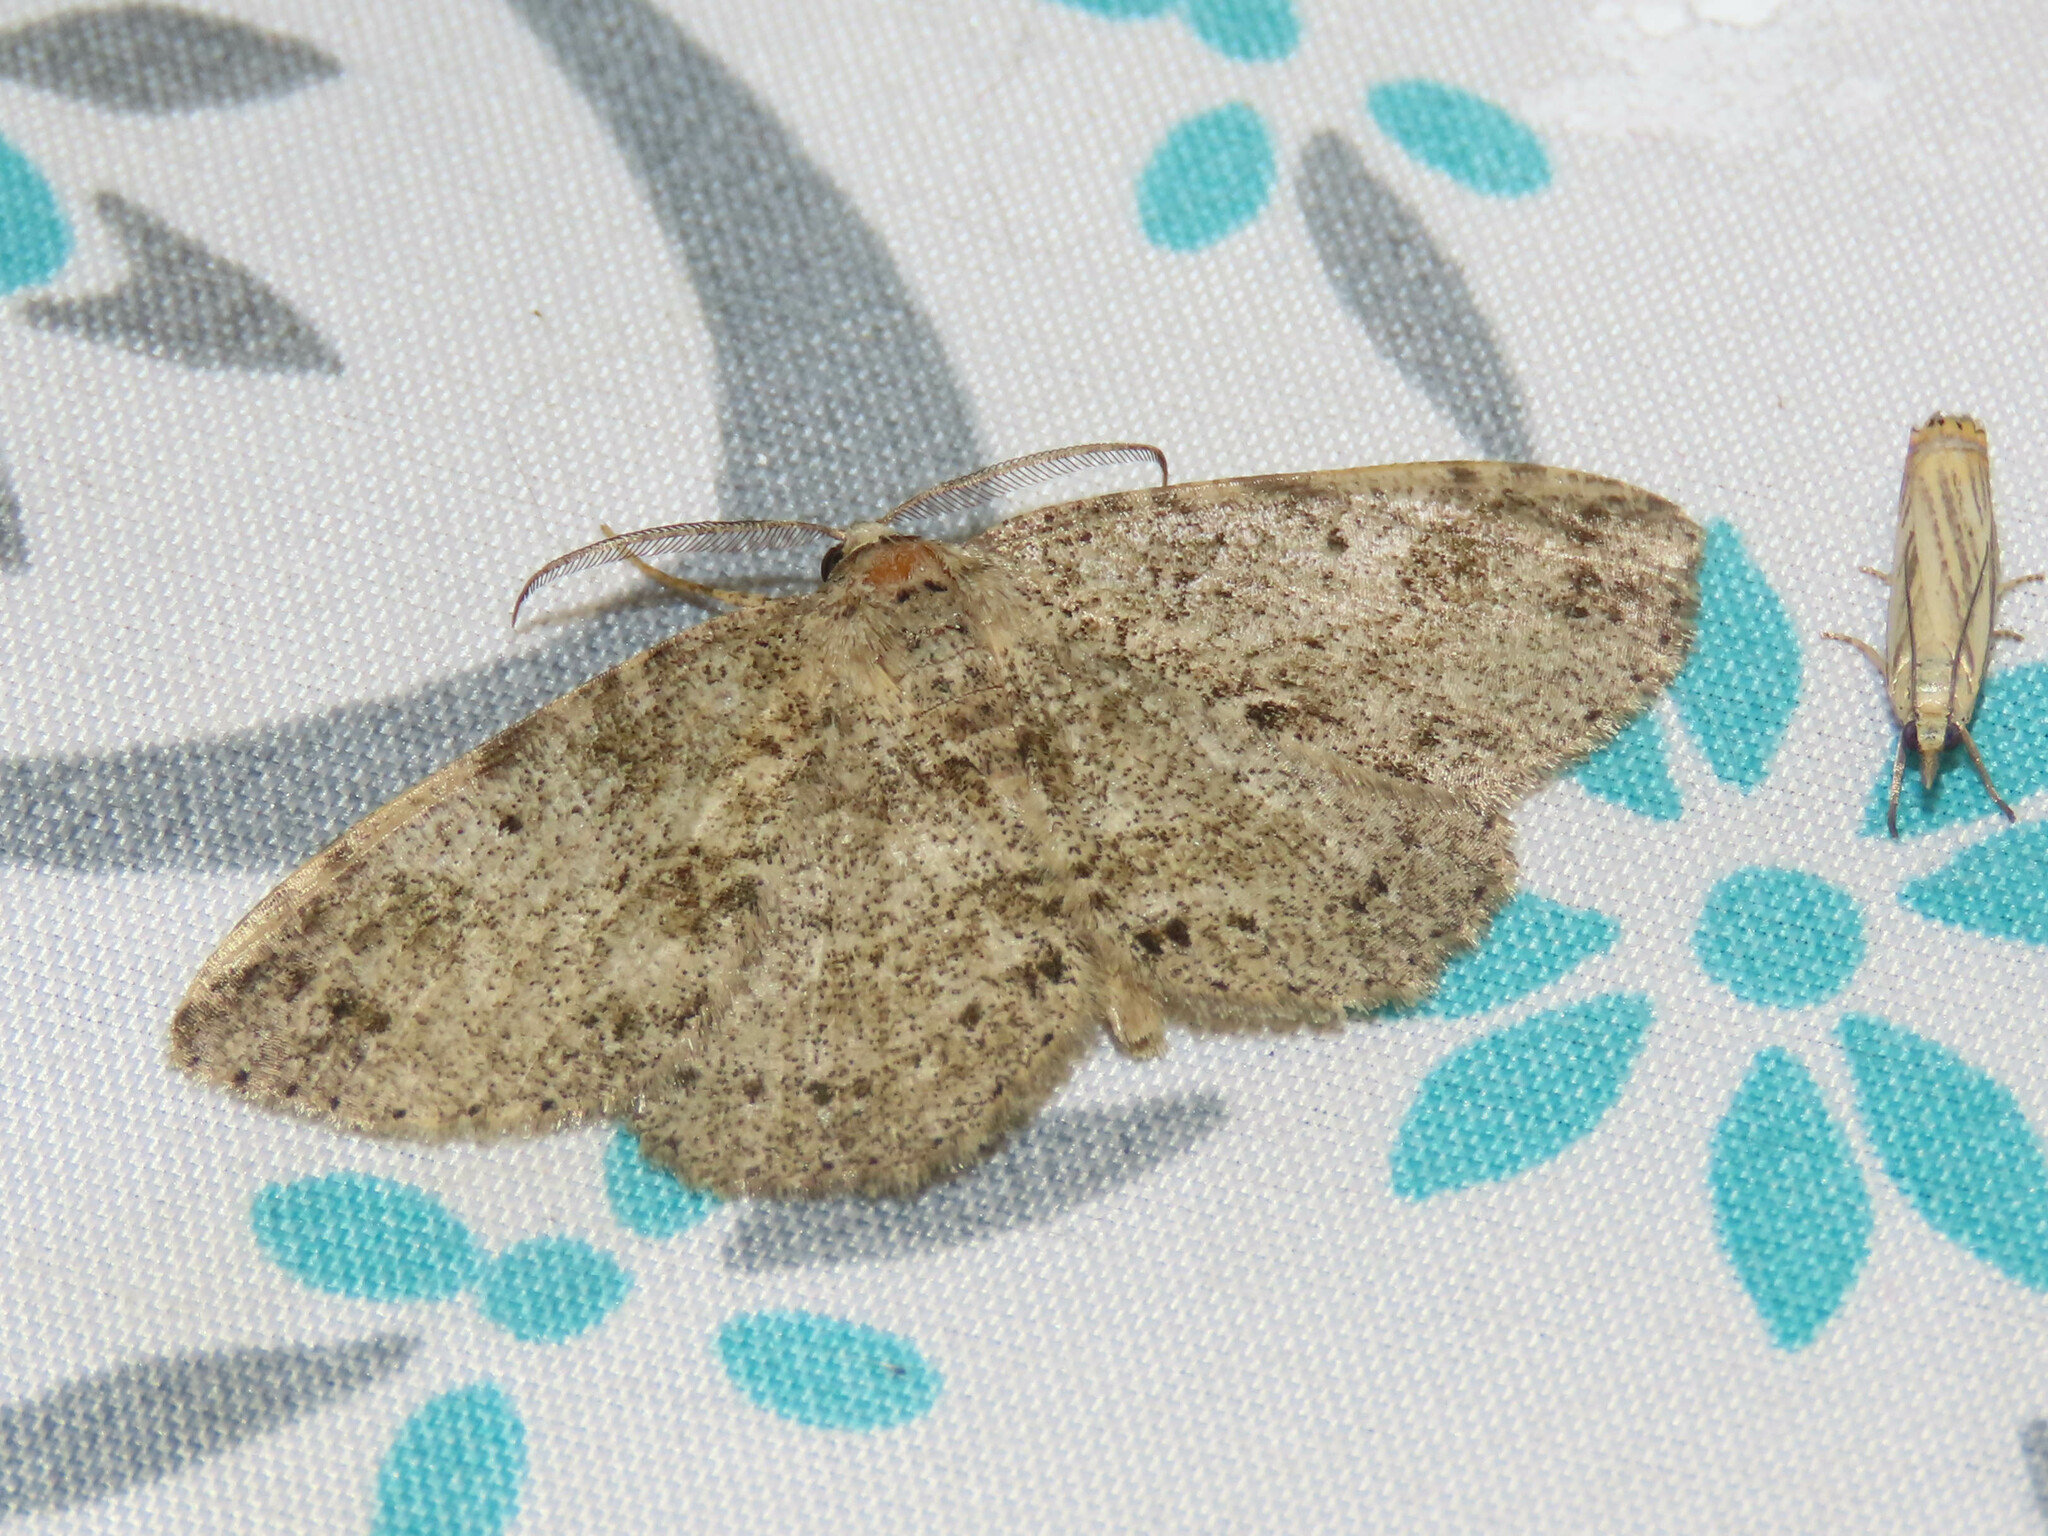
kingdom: Animalia
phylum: Arthropoda
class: Insecta
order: Lepidoptera
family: Geometridae
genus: Melanolophia
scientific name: Melanolophia canadaria
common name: Canadian melanolophia
